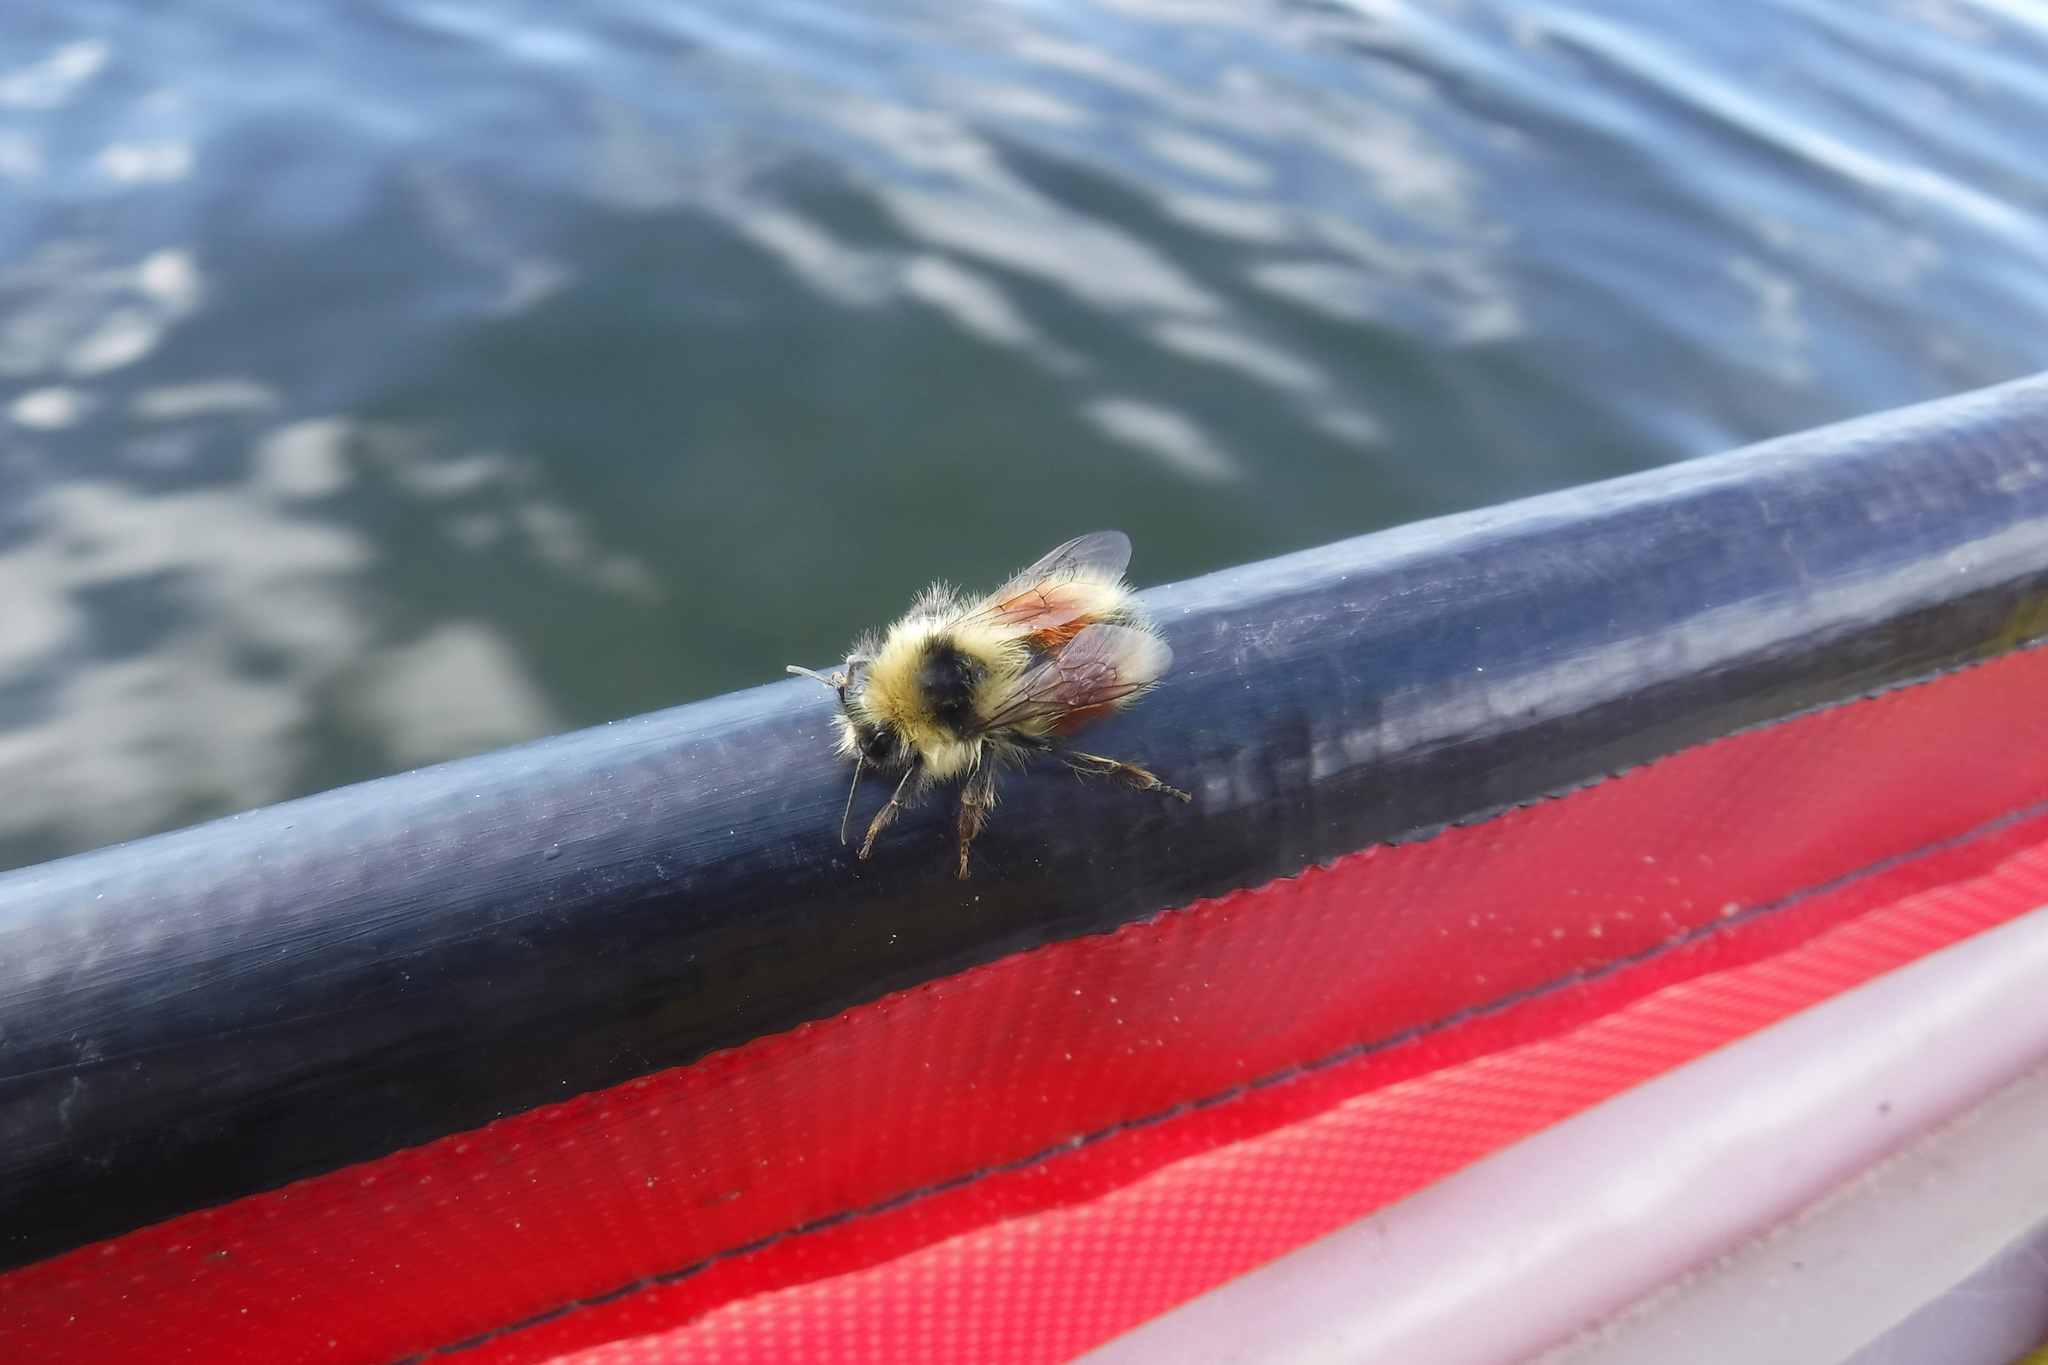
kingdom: Animalia
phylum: Arthropoda
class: Insecta
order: Hymenoptera
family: Apidae
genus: Bombus
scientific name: Bombus sylvicola
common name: Forest bumble bee
